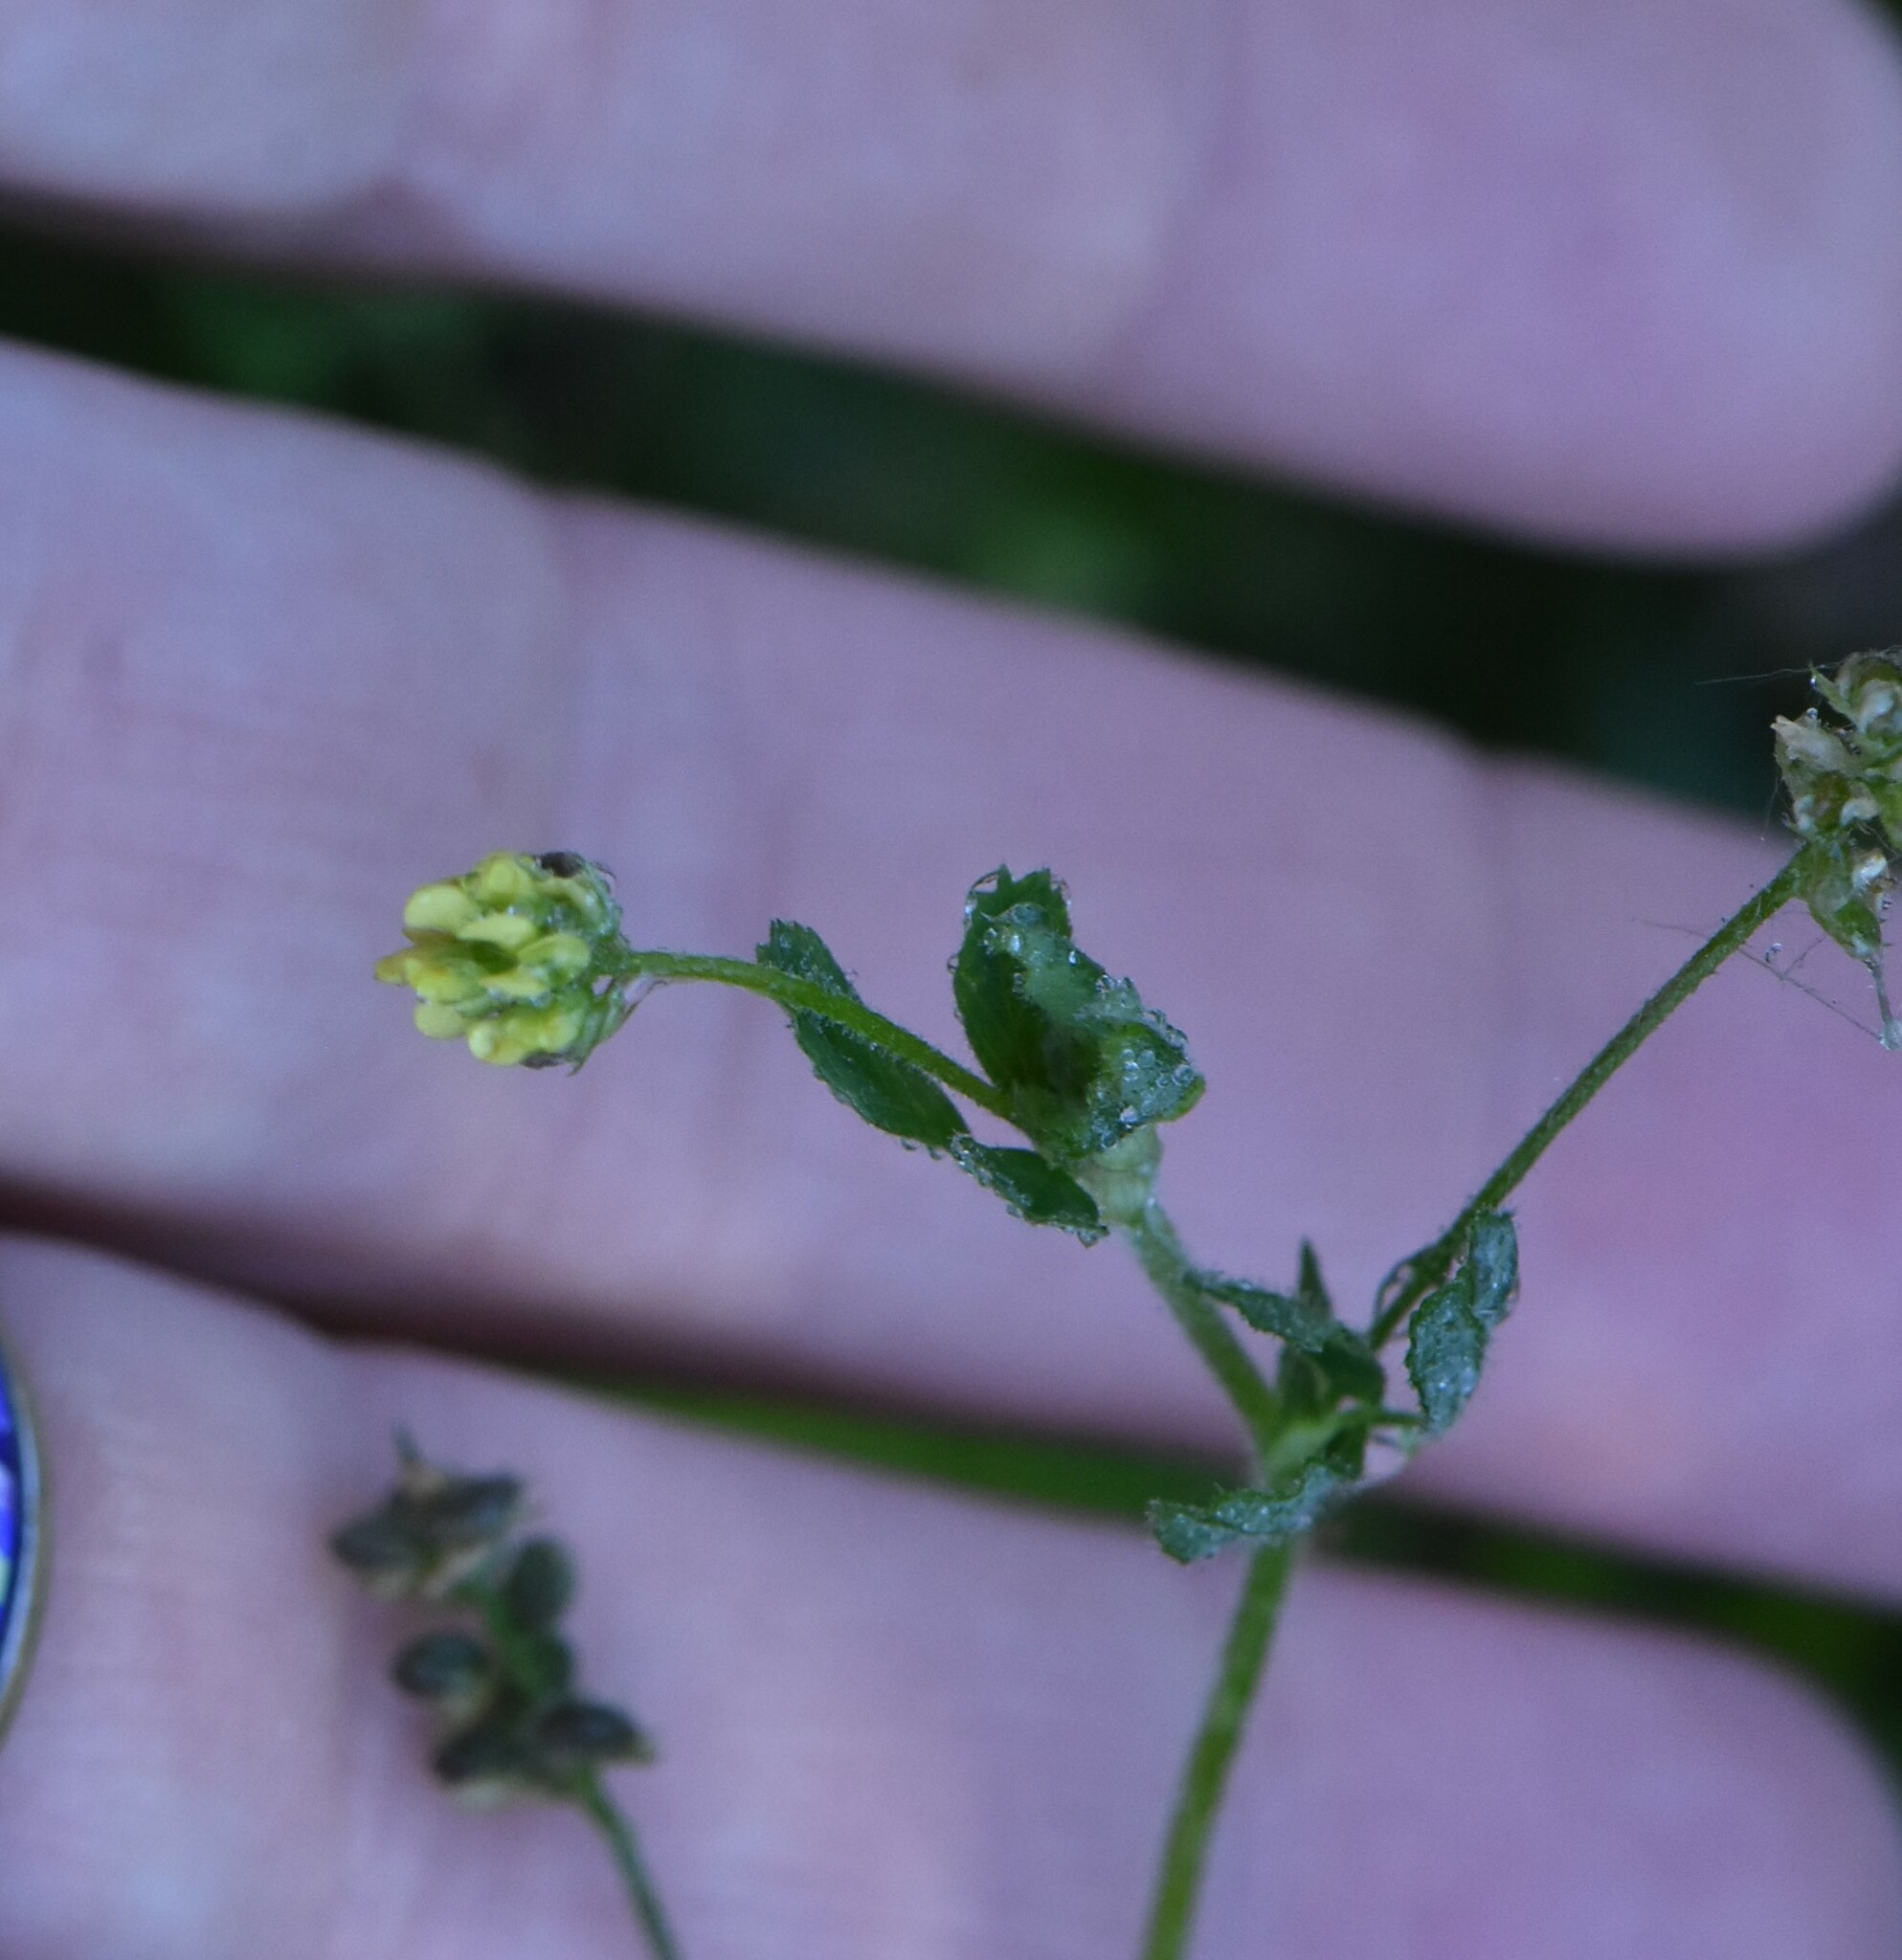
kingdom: Plantae
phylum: Tracheophyta
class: Magnoliopsida
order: Fabales
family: Fabaceae
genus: Medicago
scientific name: Medicago lupulina
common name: Black medick
